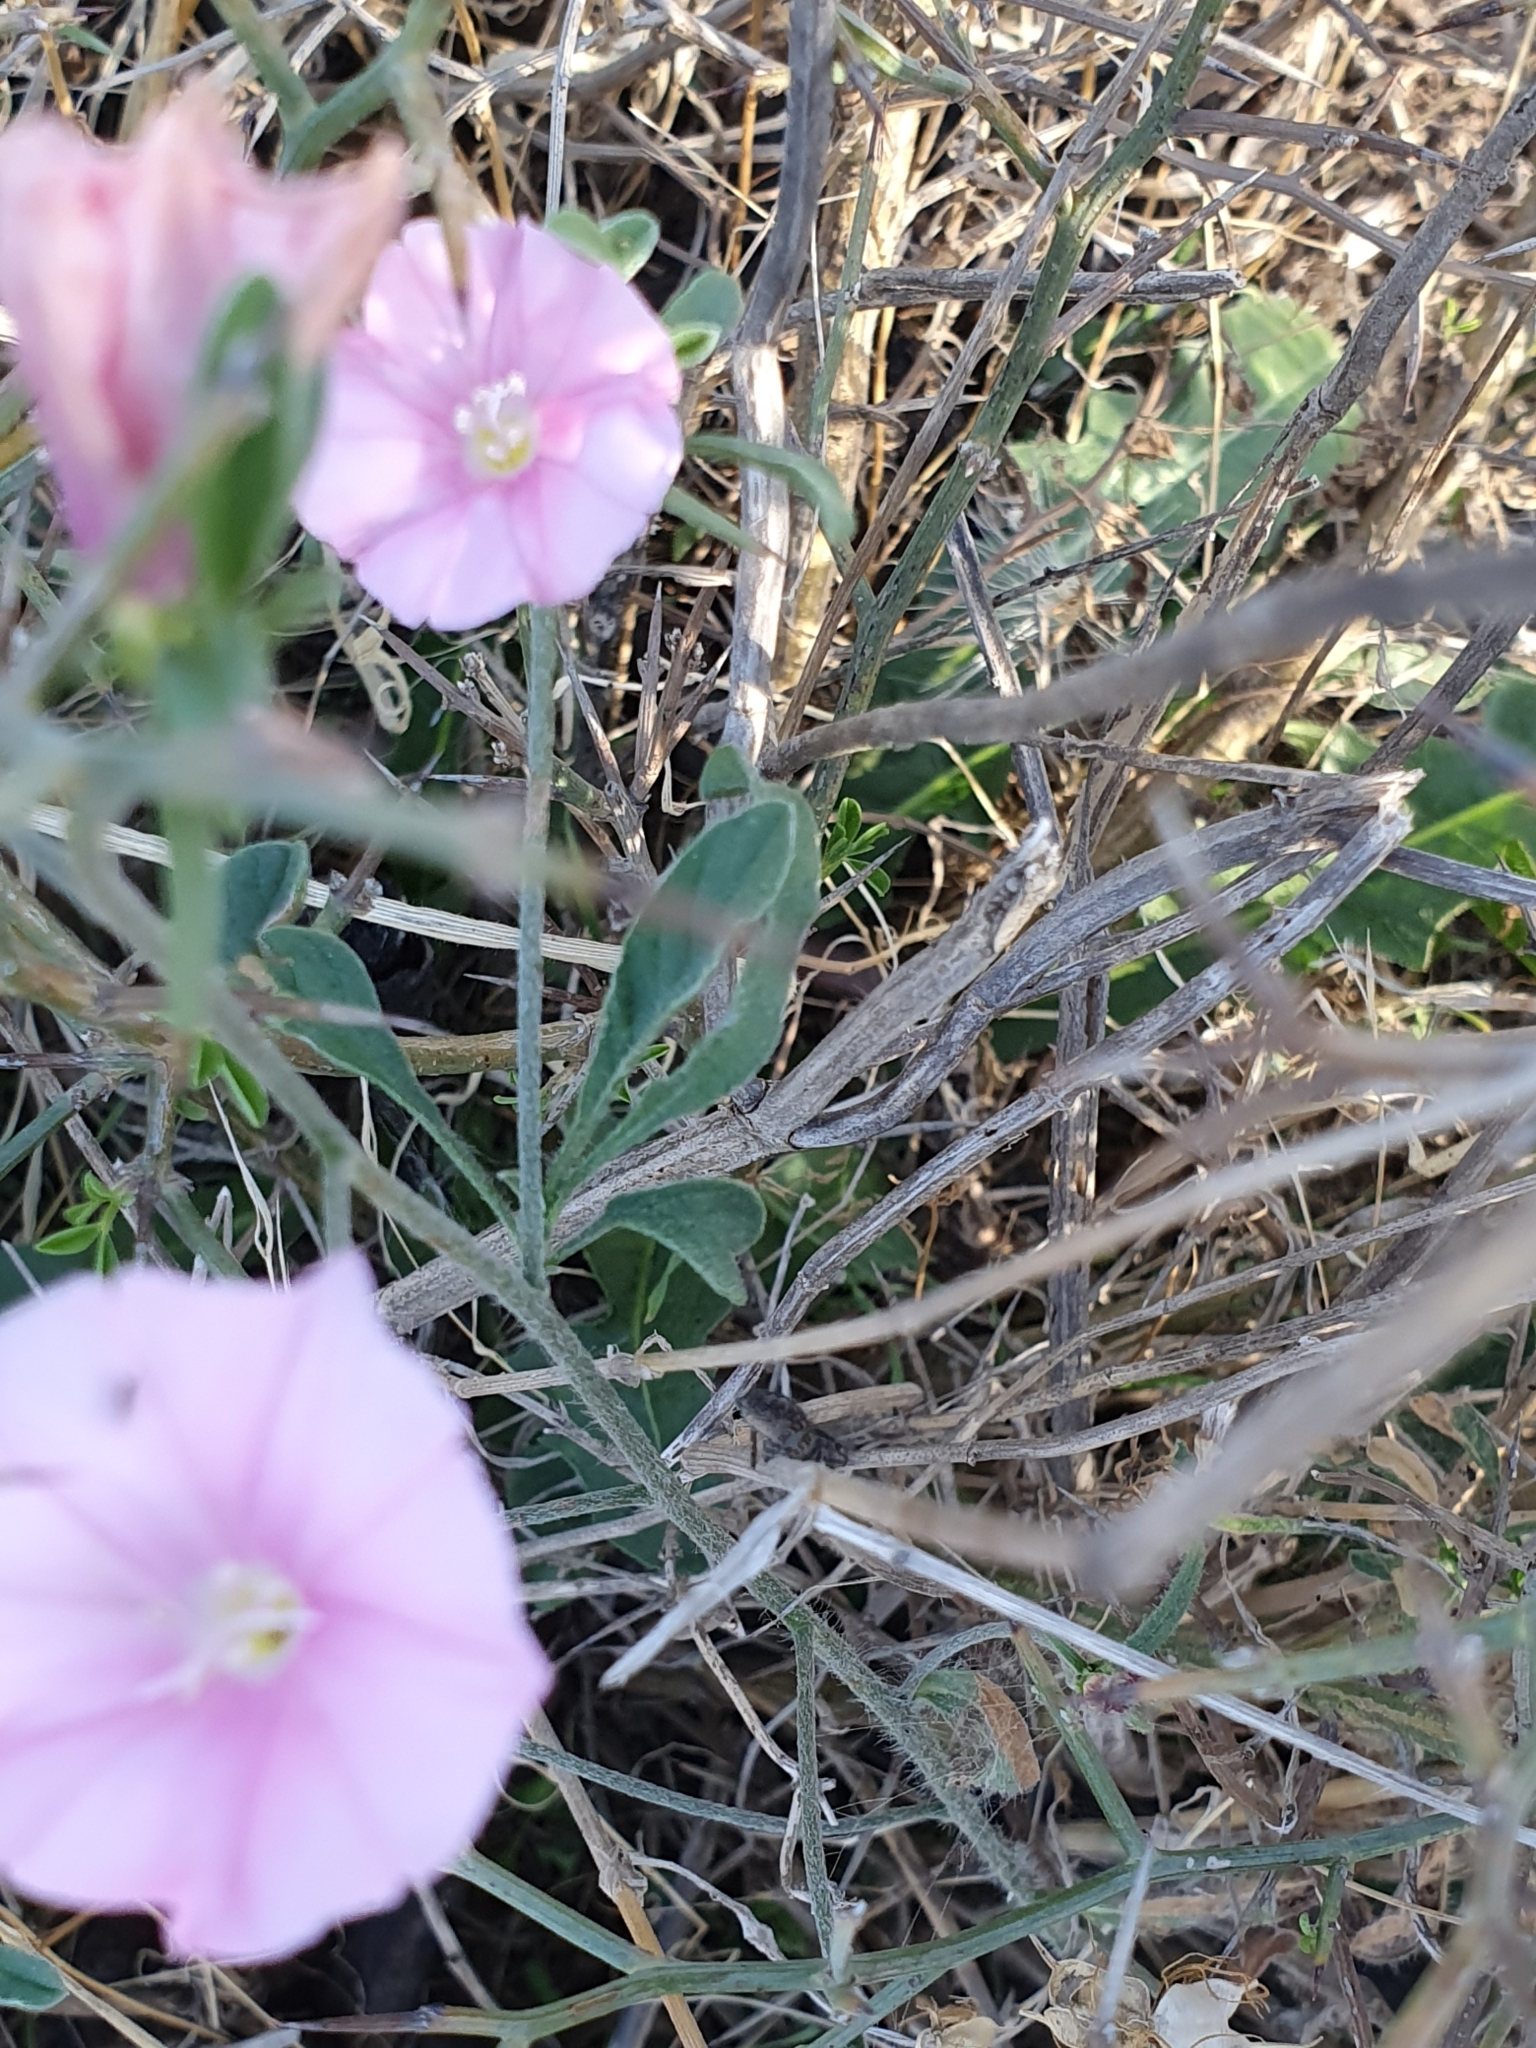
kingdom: Plantae
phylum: Tracheophyta
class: Magnoliopsida
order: Solanales
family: Convolvulaceae
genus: Convolvulus
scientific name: Convolvulus cantabrica
